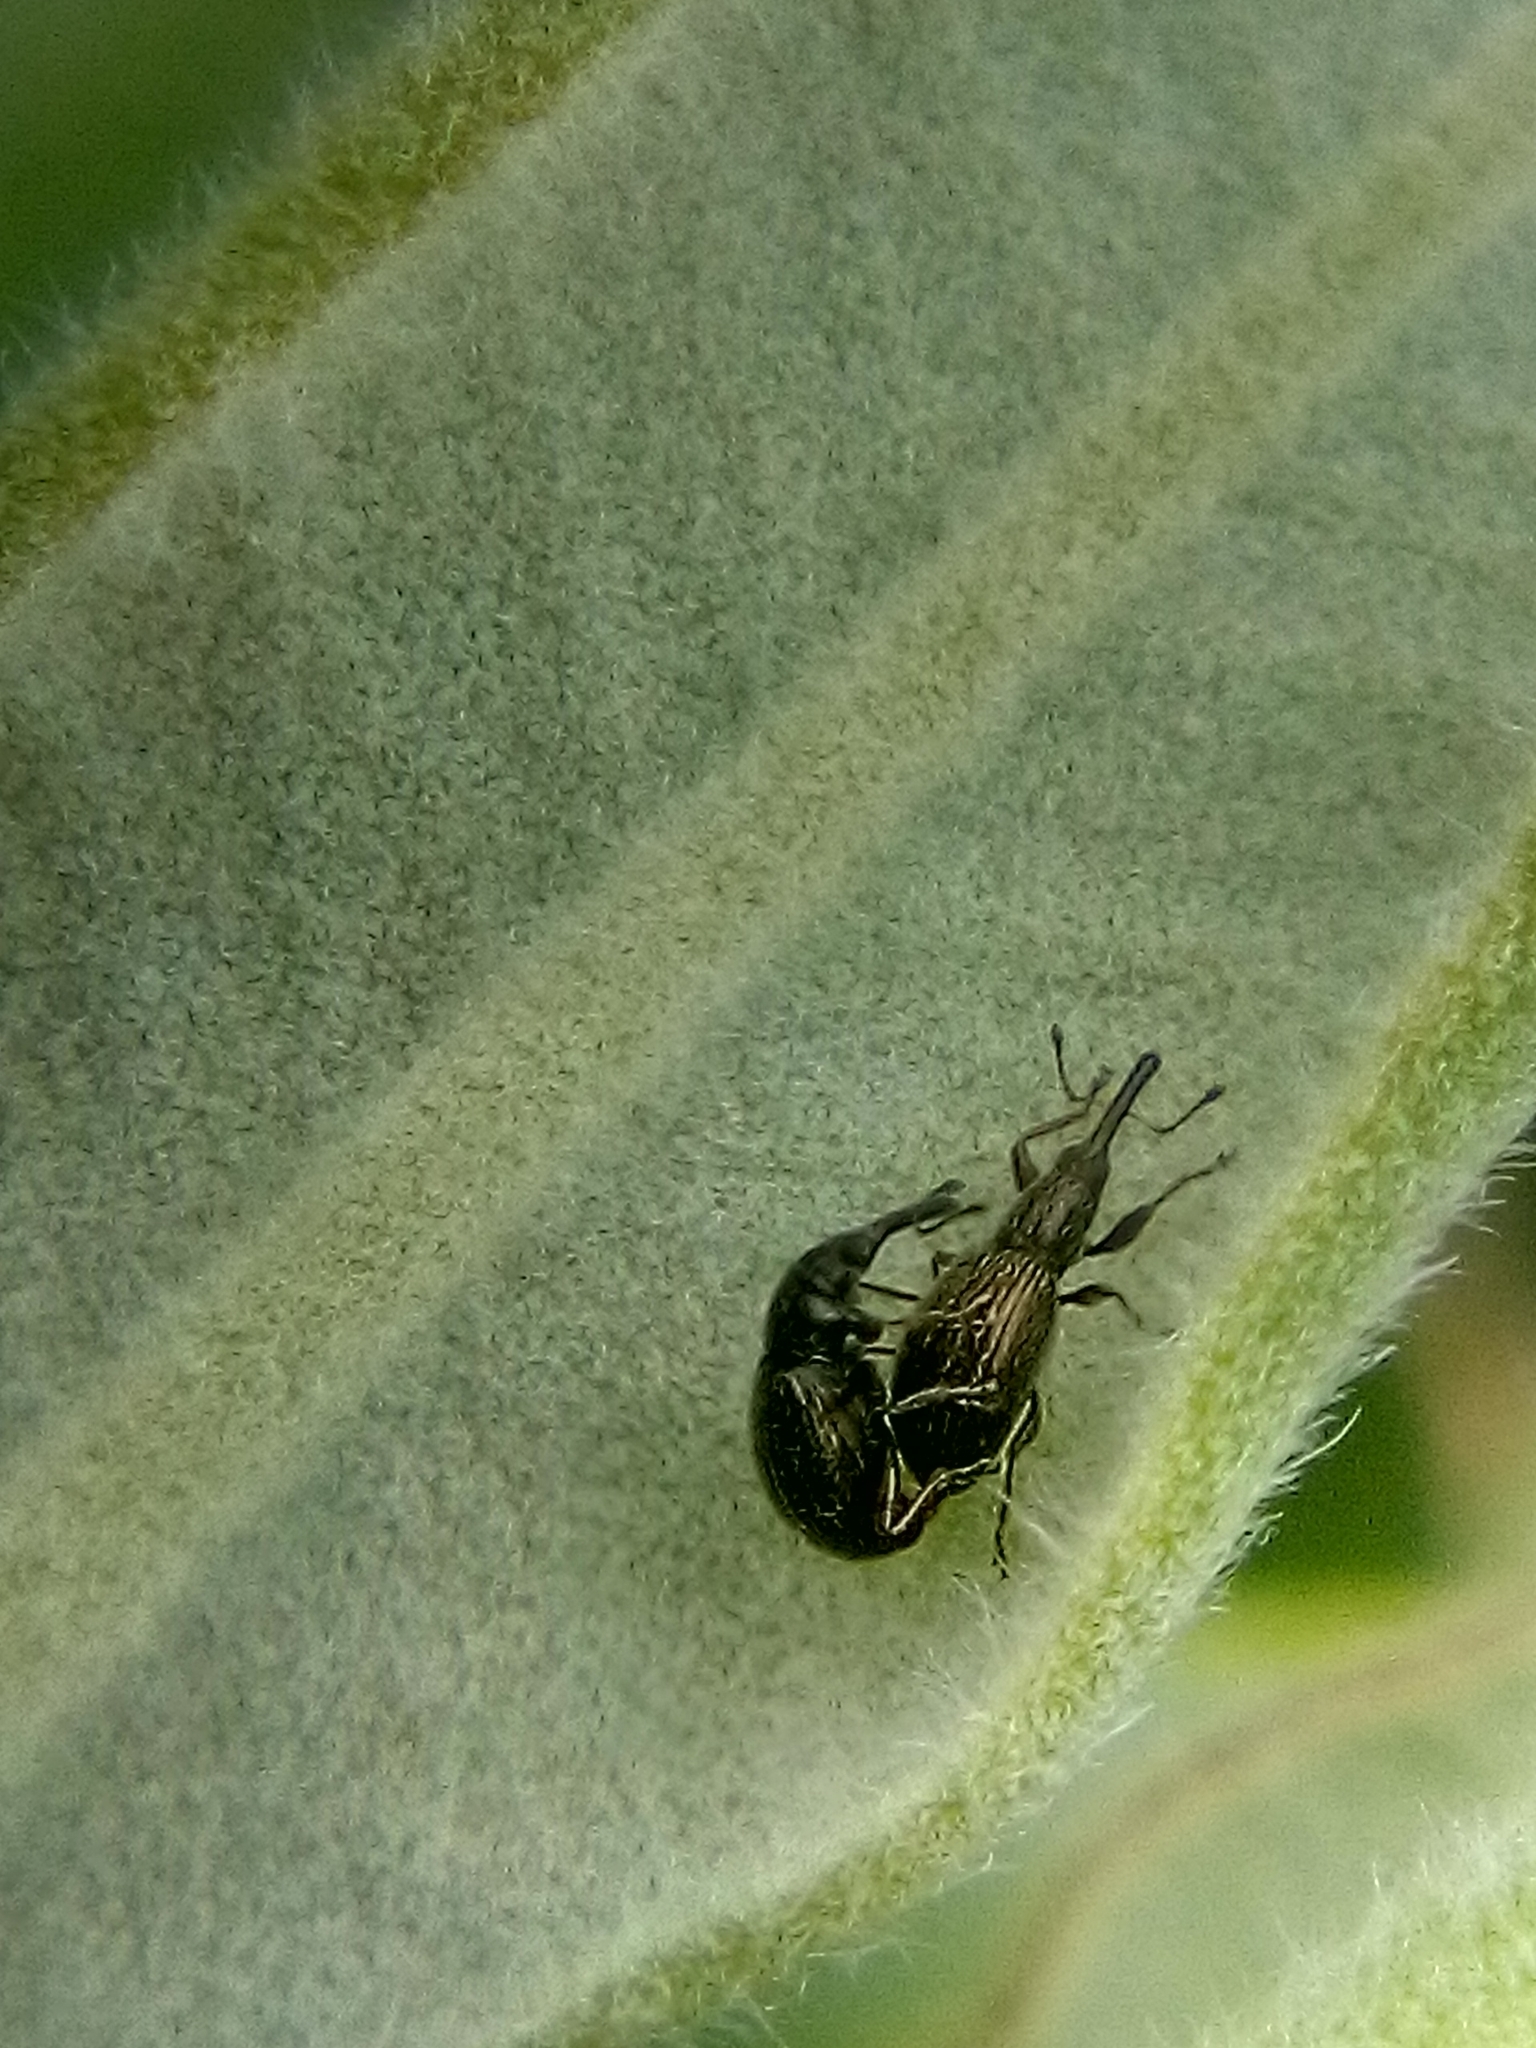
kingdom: Animalia
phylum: Arthropoda
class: Insecta
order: Coleoptera
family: Brentidae
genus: Neocyba
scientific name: Neocyba metrosideros
